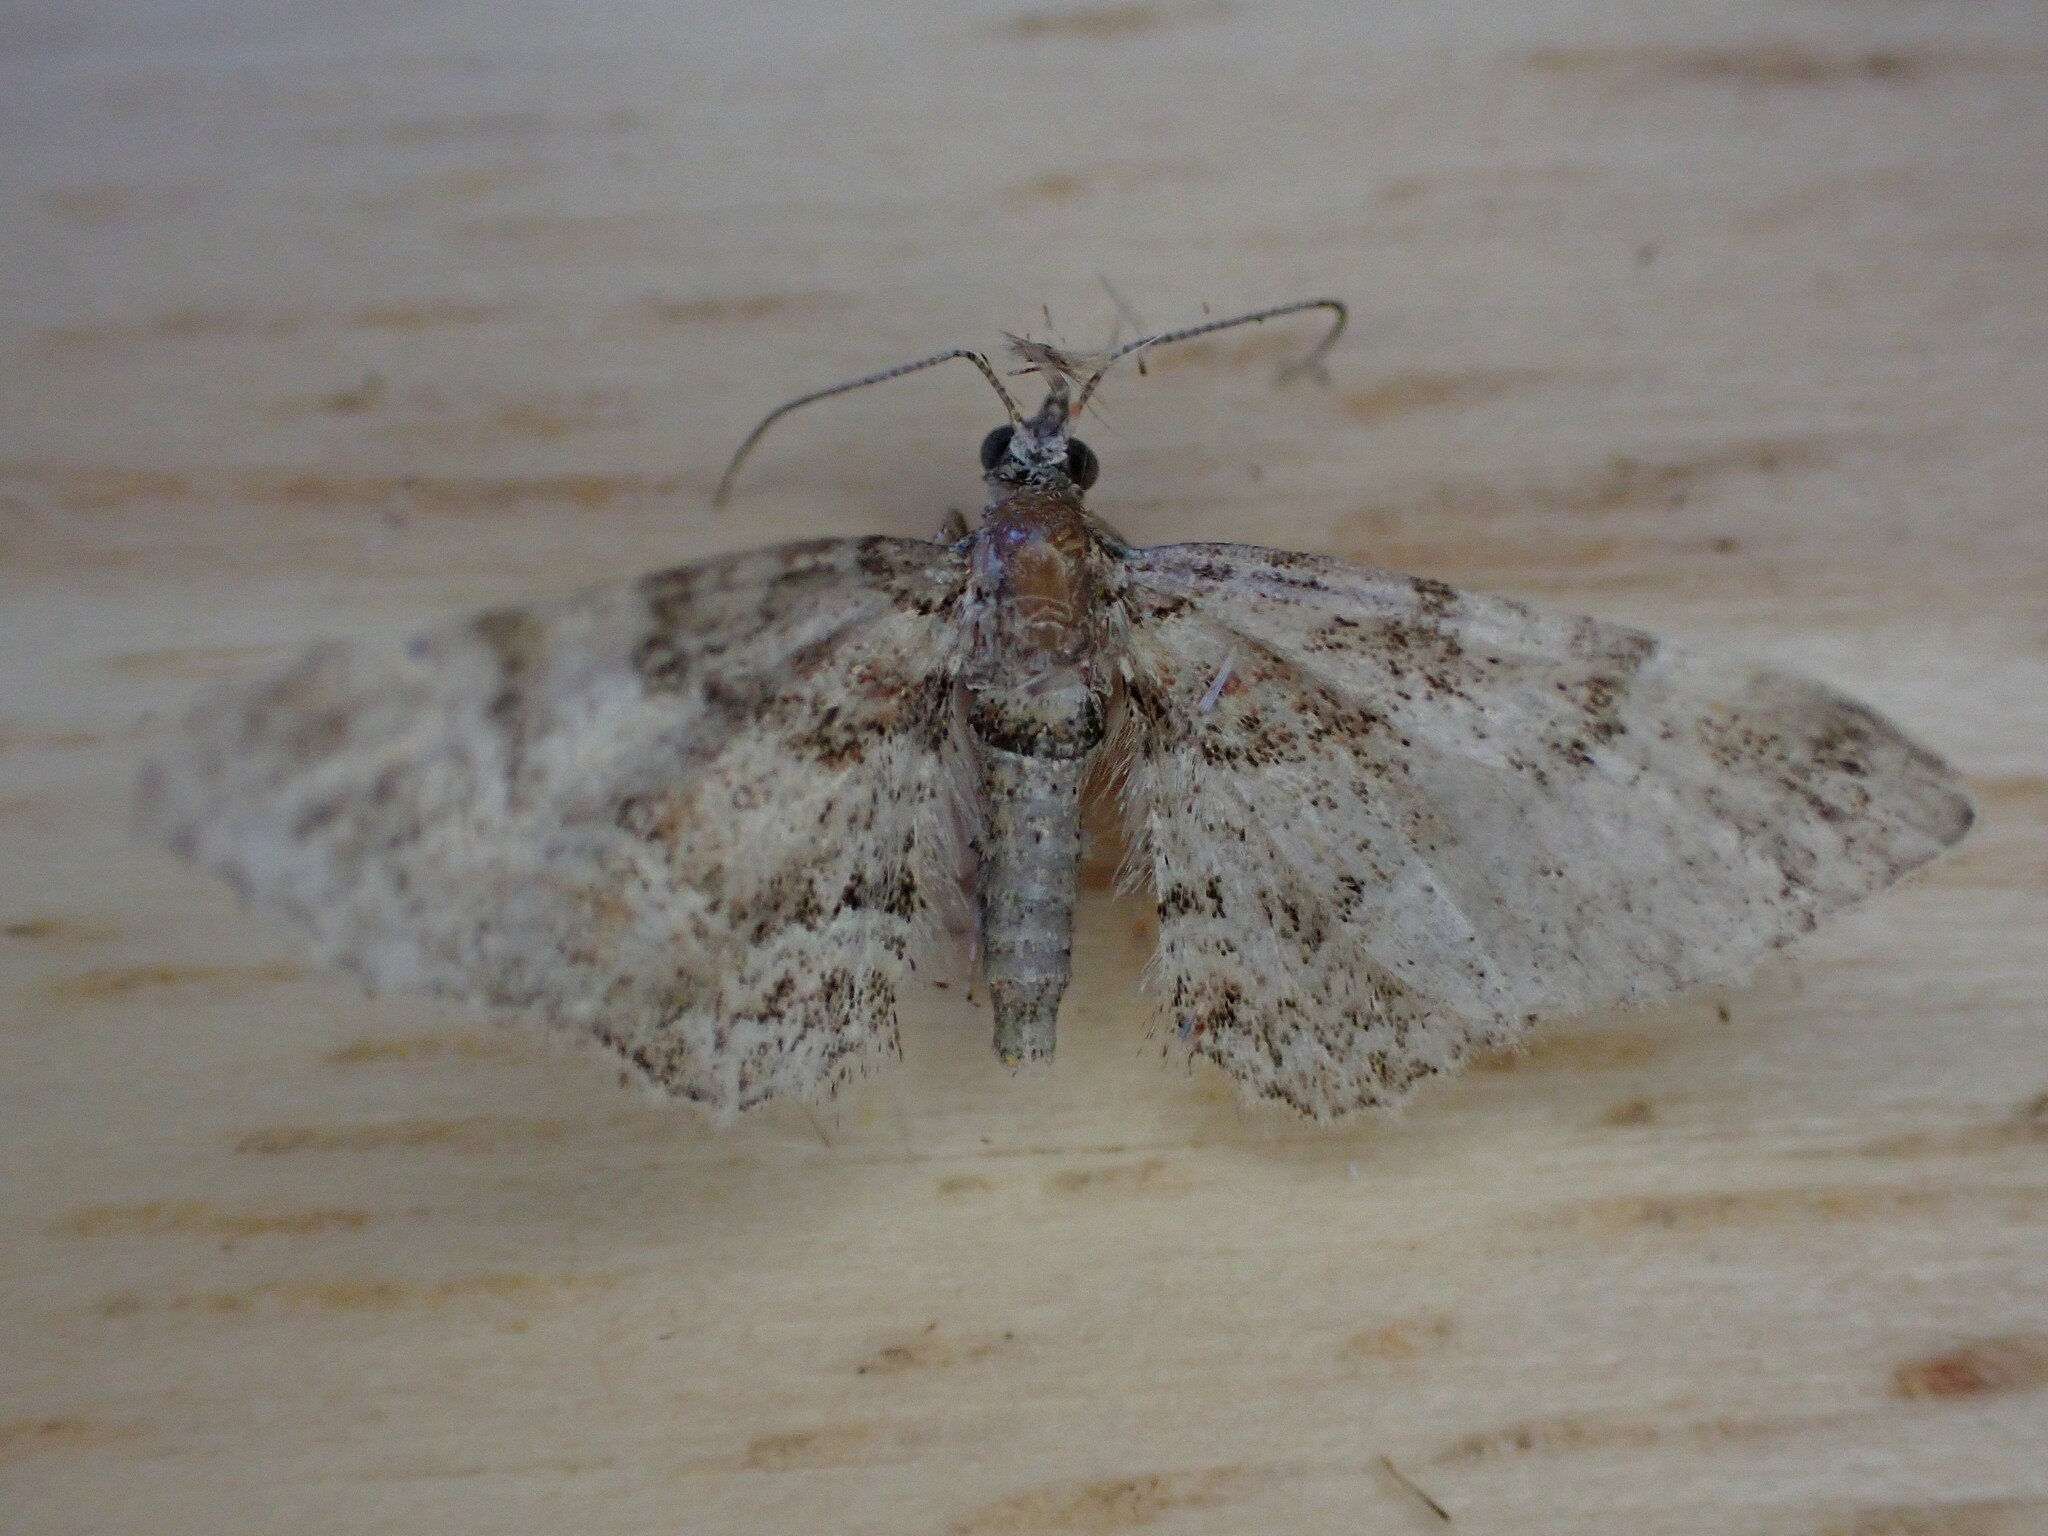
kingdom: Animalia
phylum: Arthropoda
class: Insecta
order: Lepidoptera
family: Geometridae
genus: Gymnoscelis
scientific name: Gymnoscelis rufifasciata
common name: Double-striped pug
